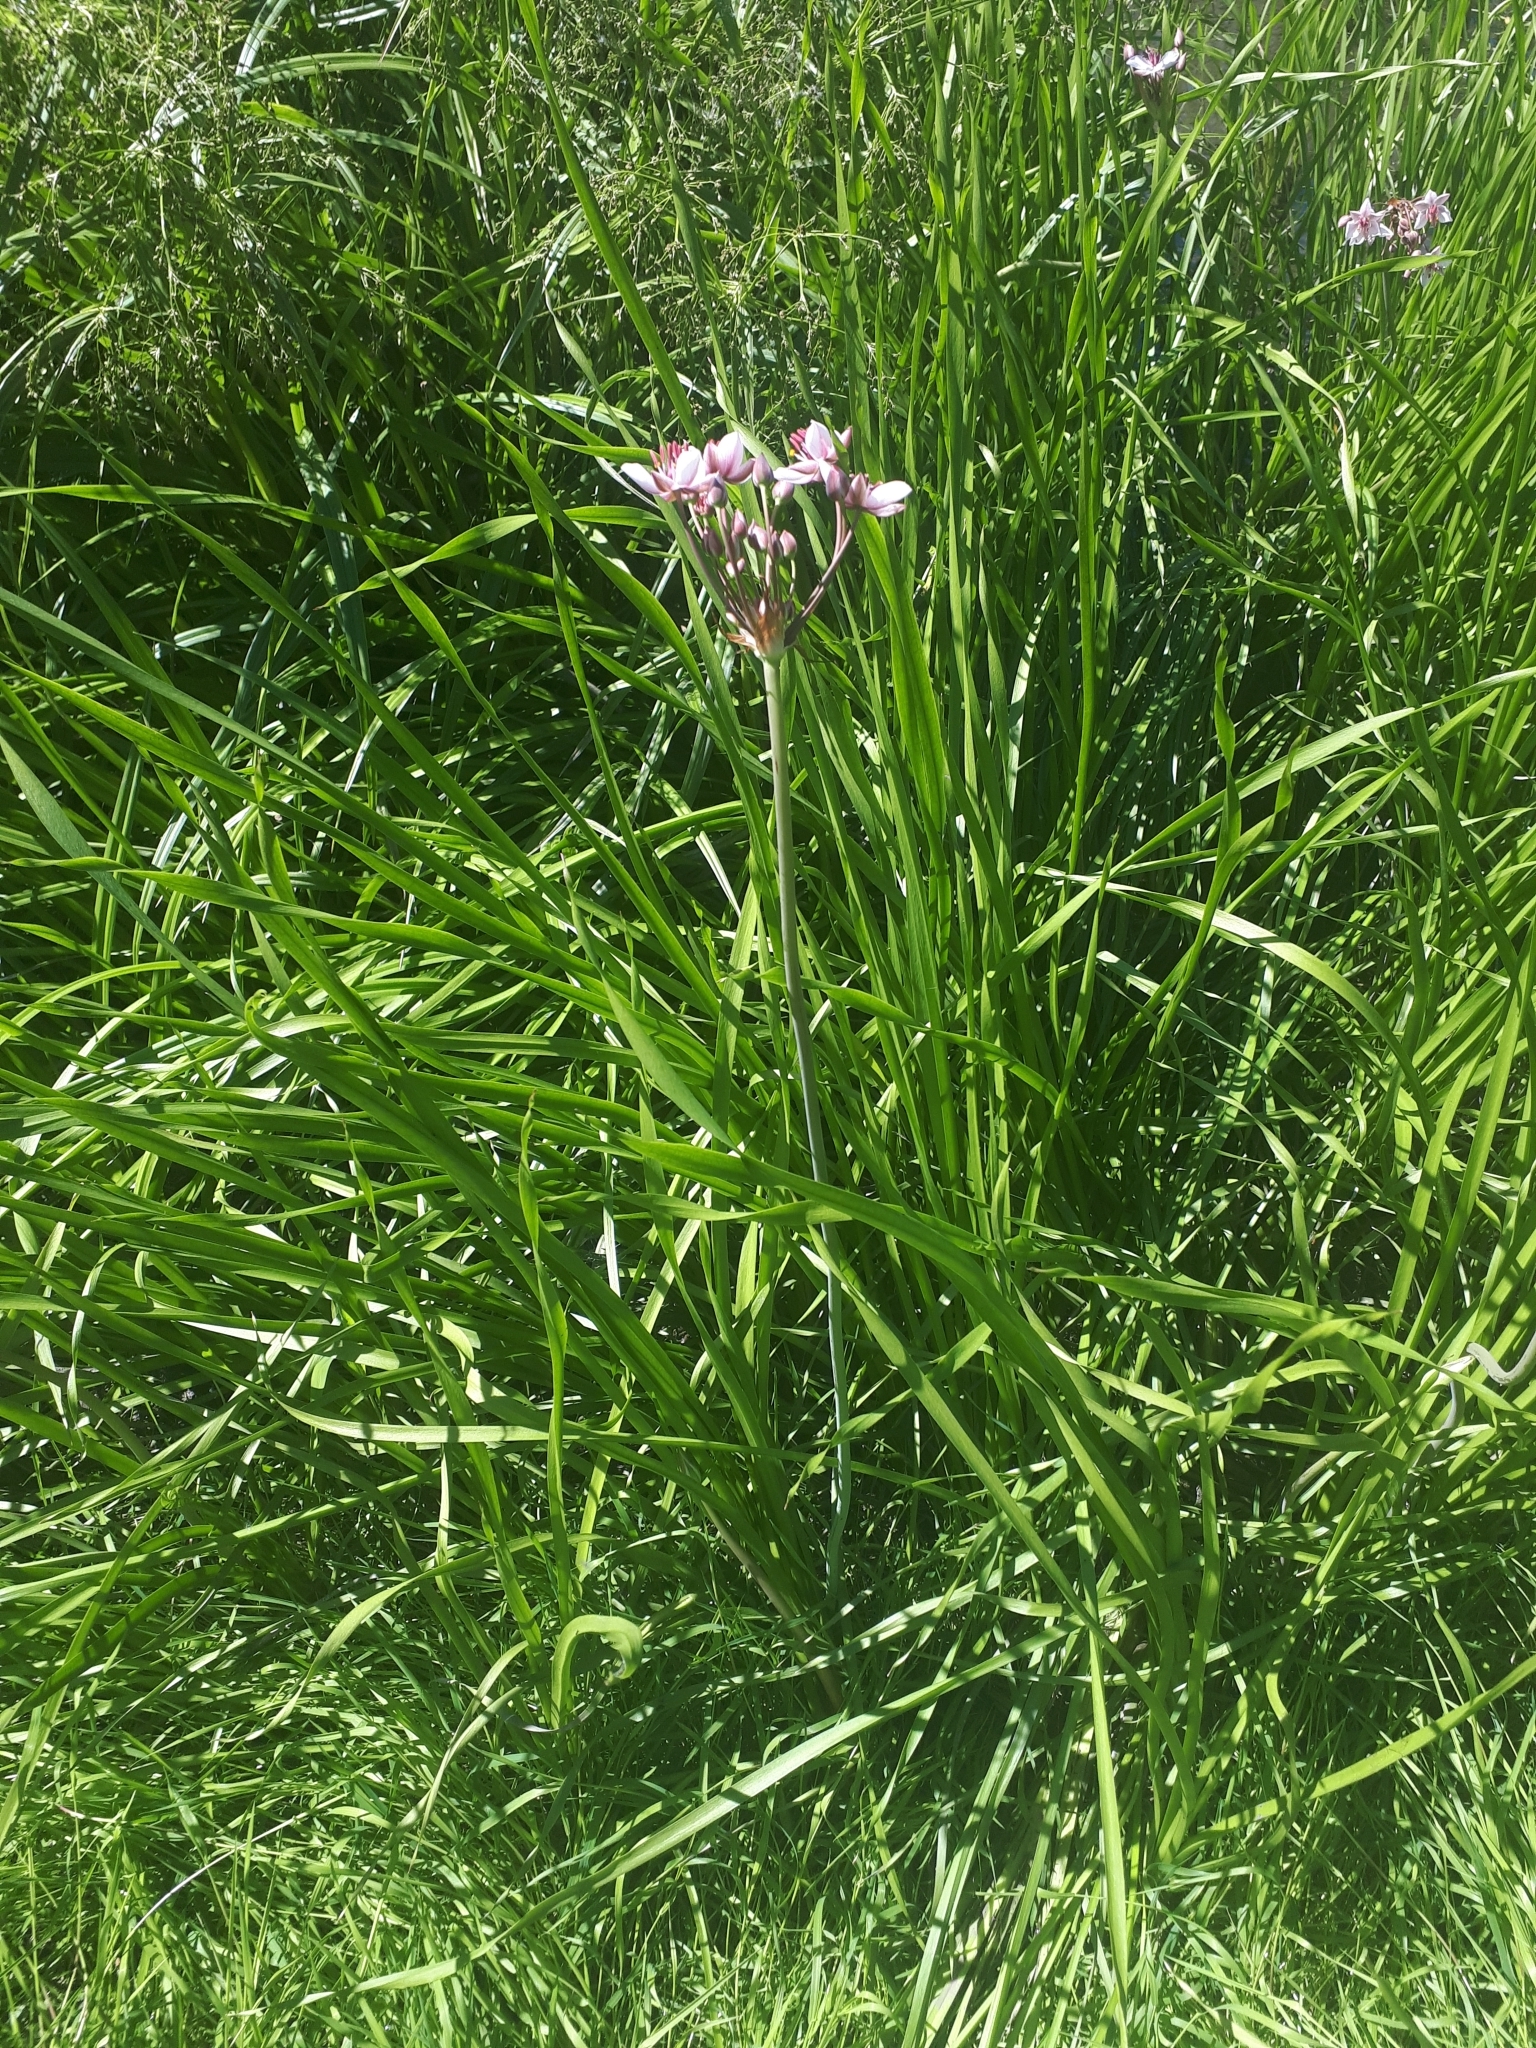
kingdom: Plantae
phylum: Tracheophyta
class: Liliopsida
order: Alismatales
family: Butomaceae
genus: Butomus
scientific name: Butomus umbellatus
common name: Flowering-rush
